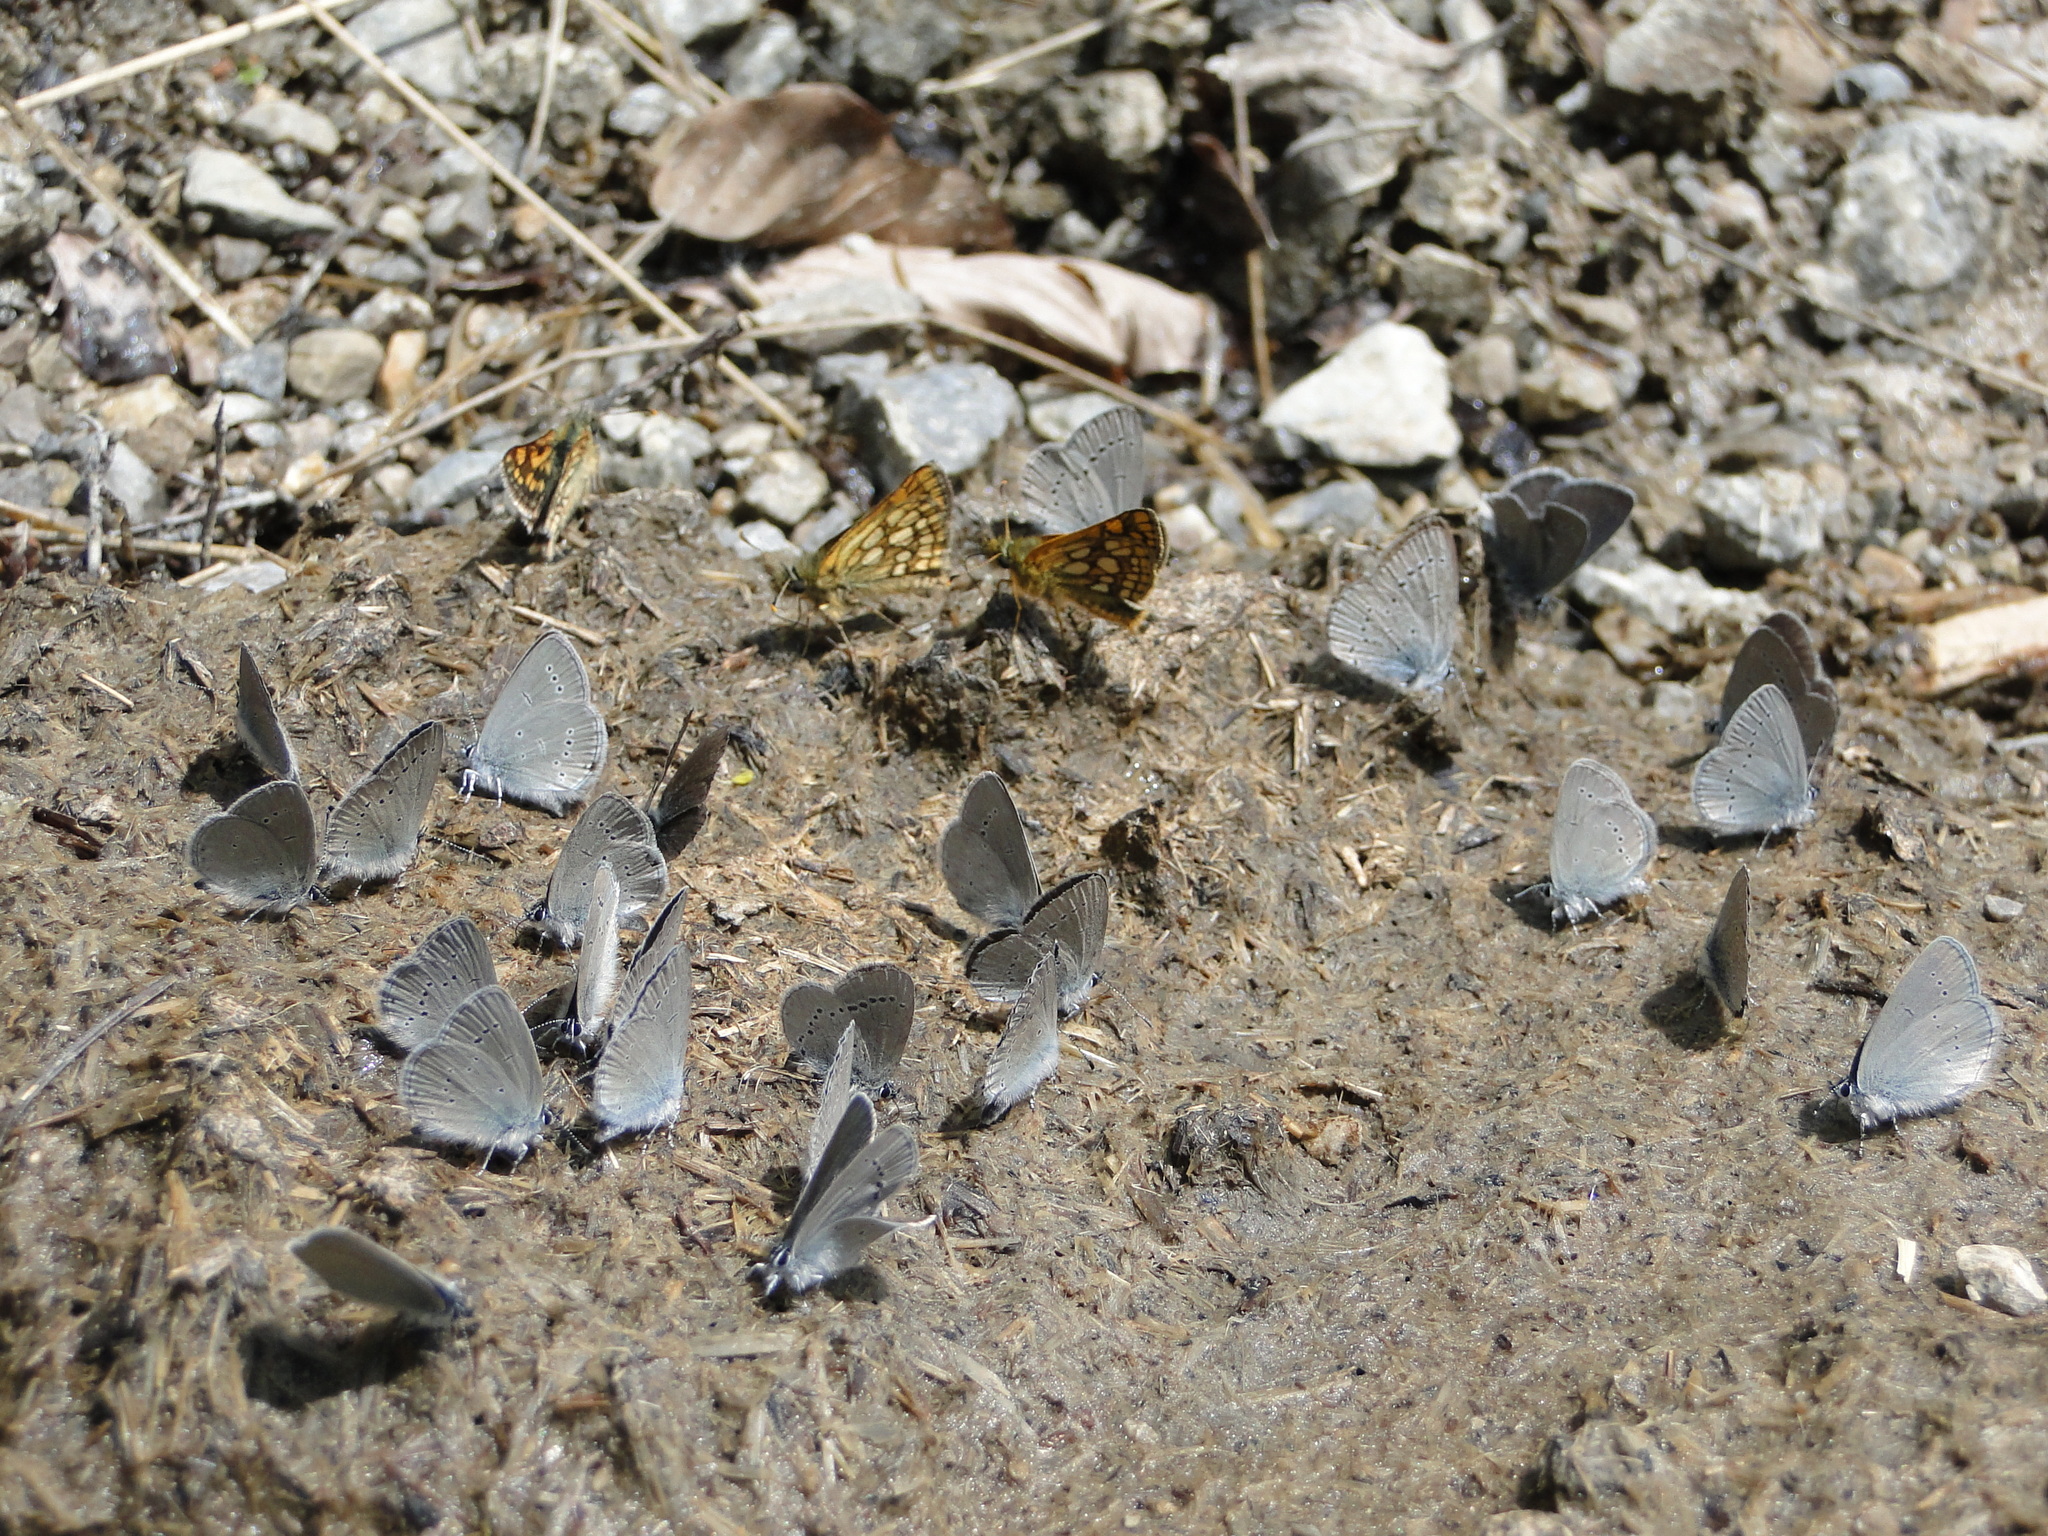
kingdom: Animalia
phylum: Arthropoda
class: Insecta
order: Lepidoptera
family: Lycaenidae
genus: Cupido
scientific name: Cupido minimus
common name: Small blue
